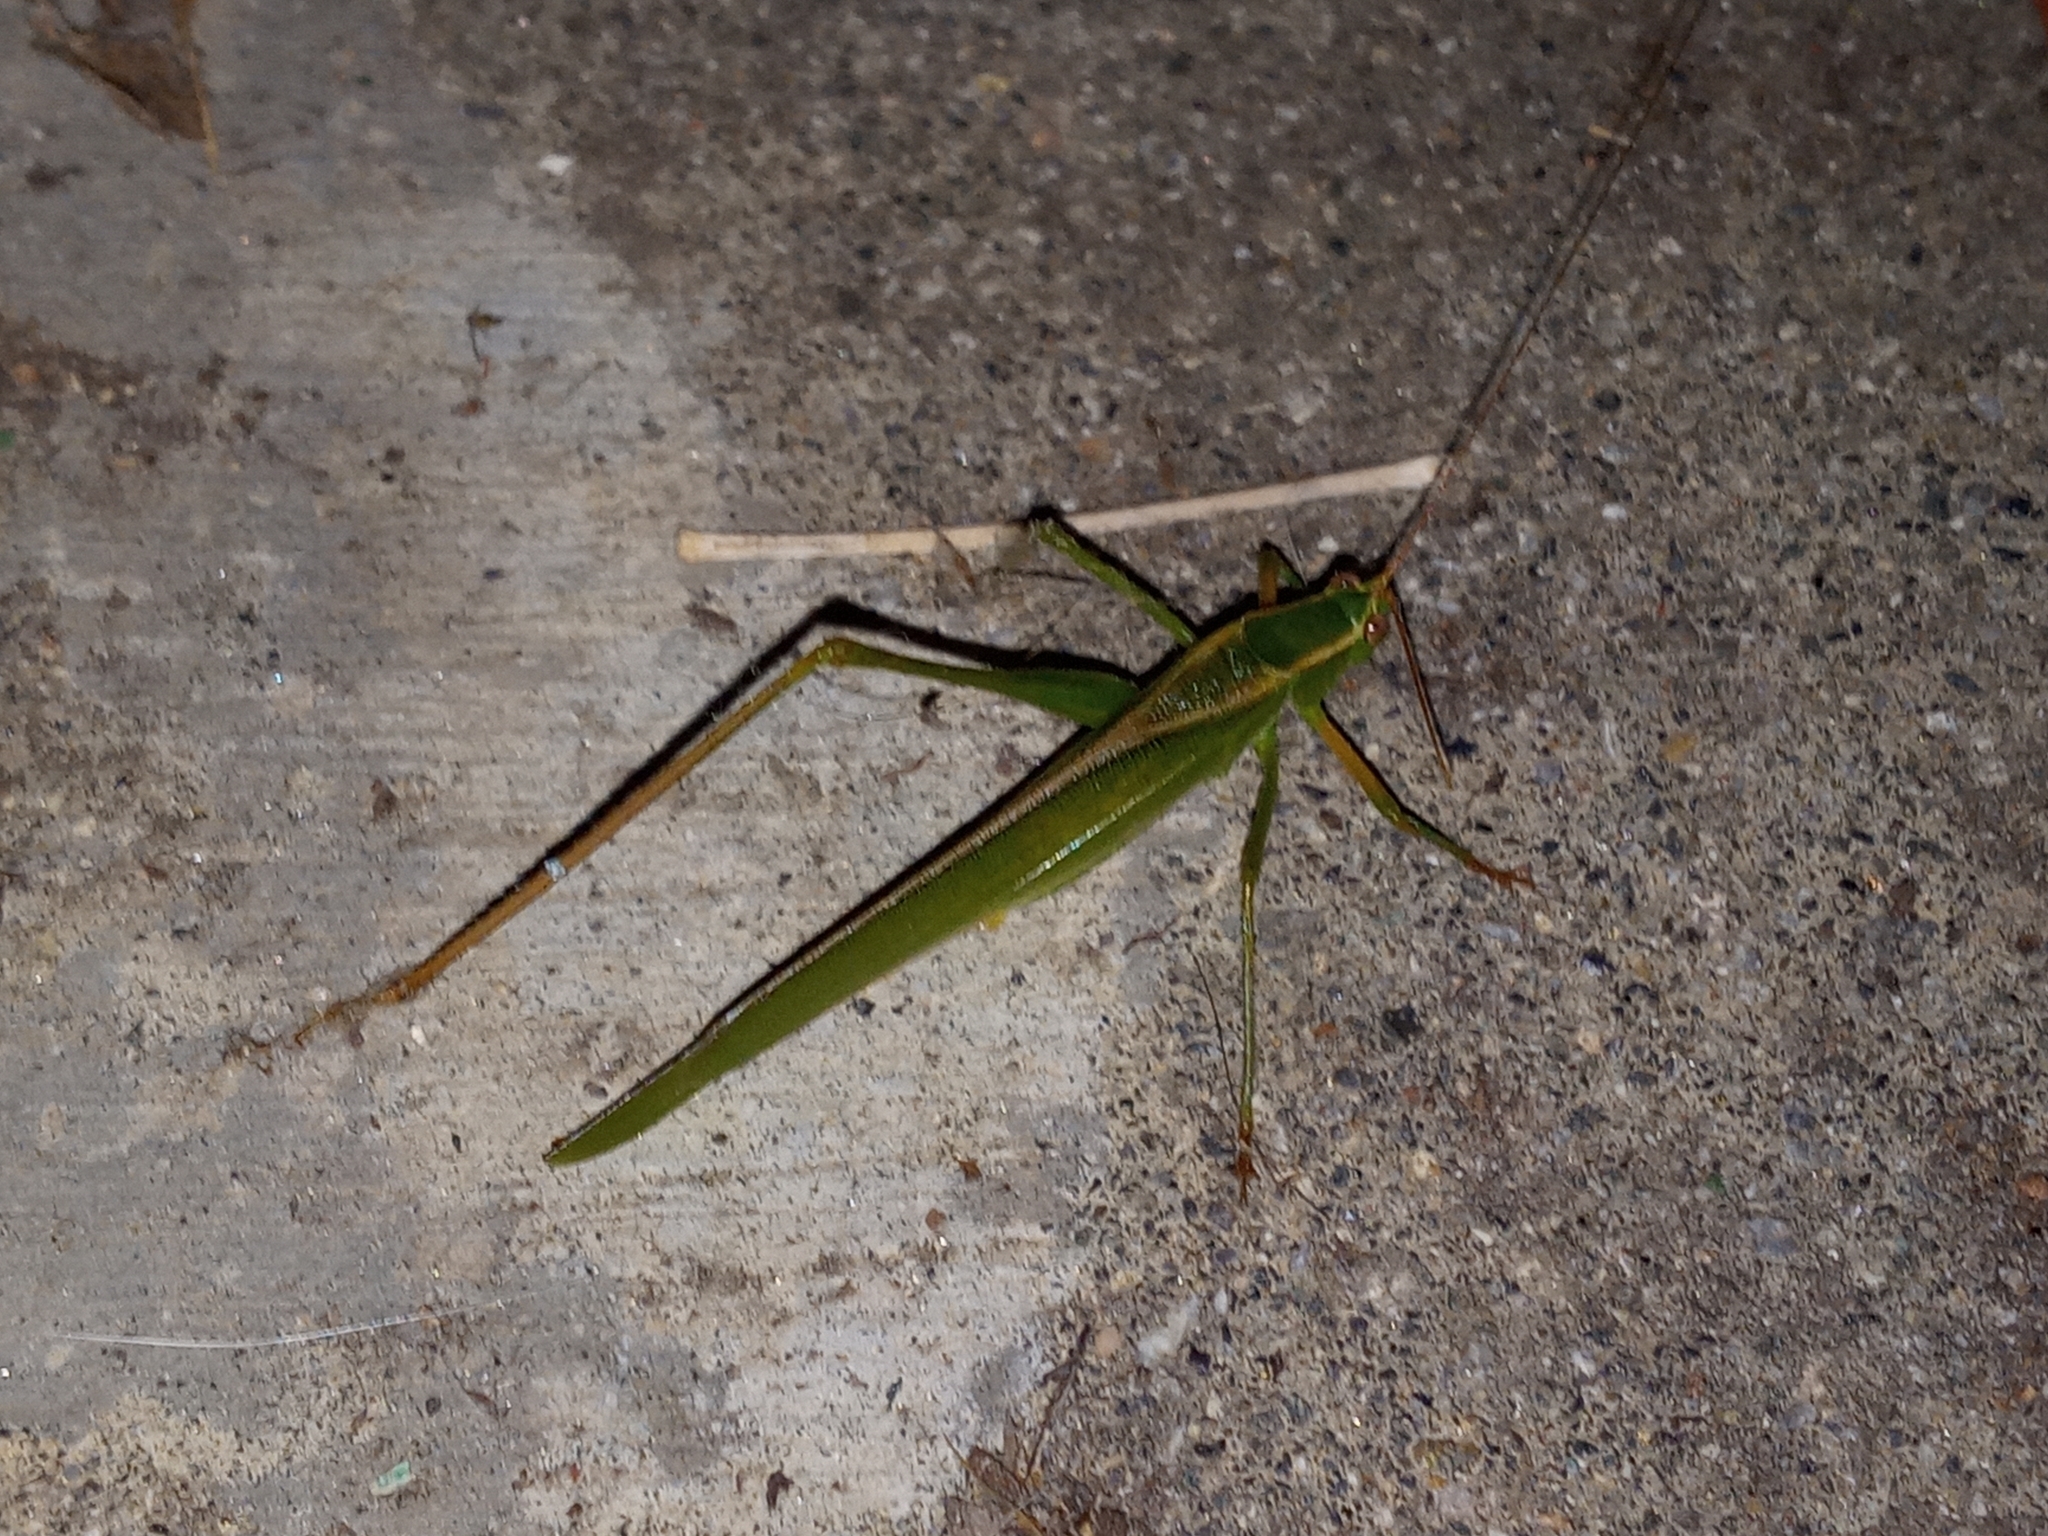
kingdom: Animalia
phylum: Arthropoda
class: Insecta
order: Orthoptera
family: Tettigoniidae
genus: Scudderia
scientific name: Scudderia mexicana
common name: Mexican bush katydid
